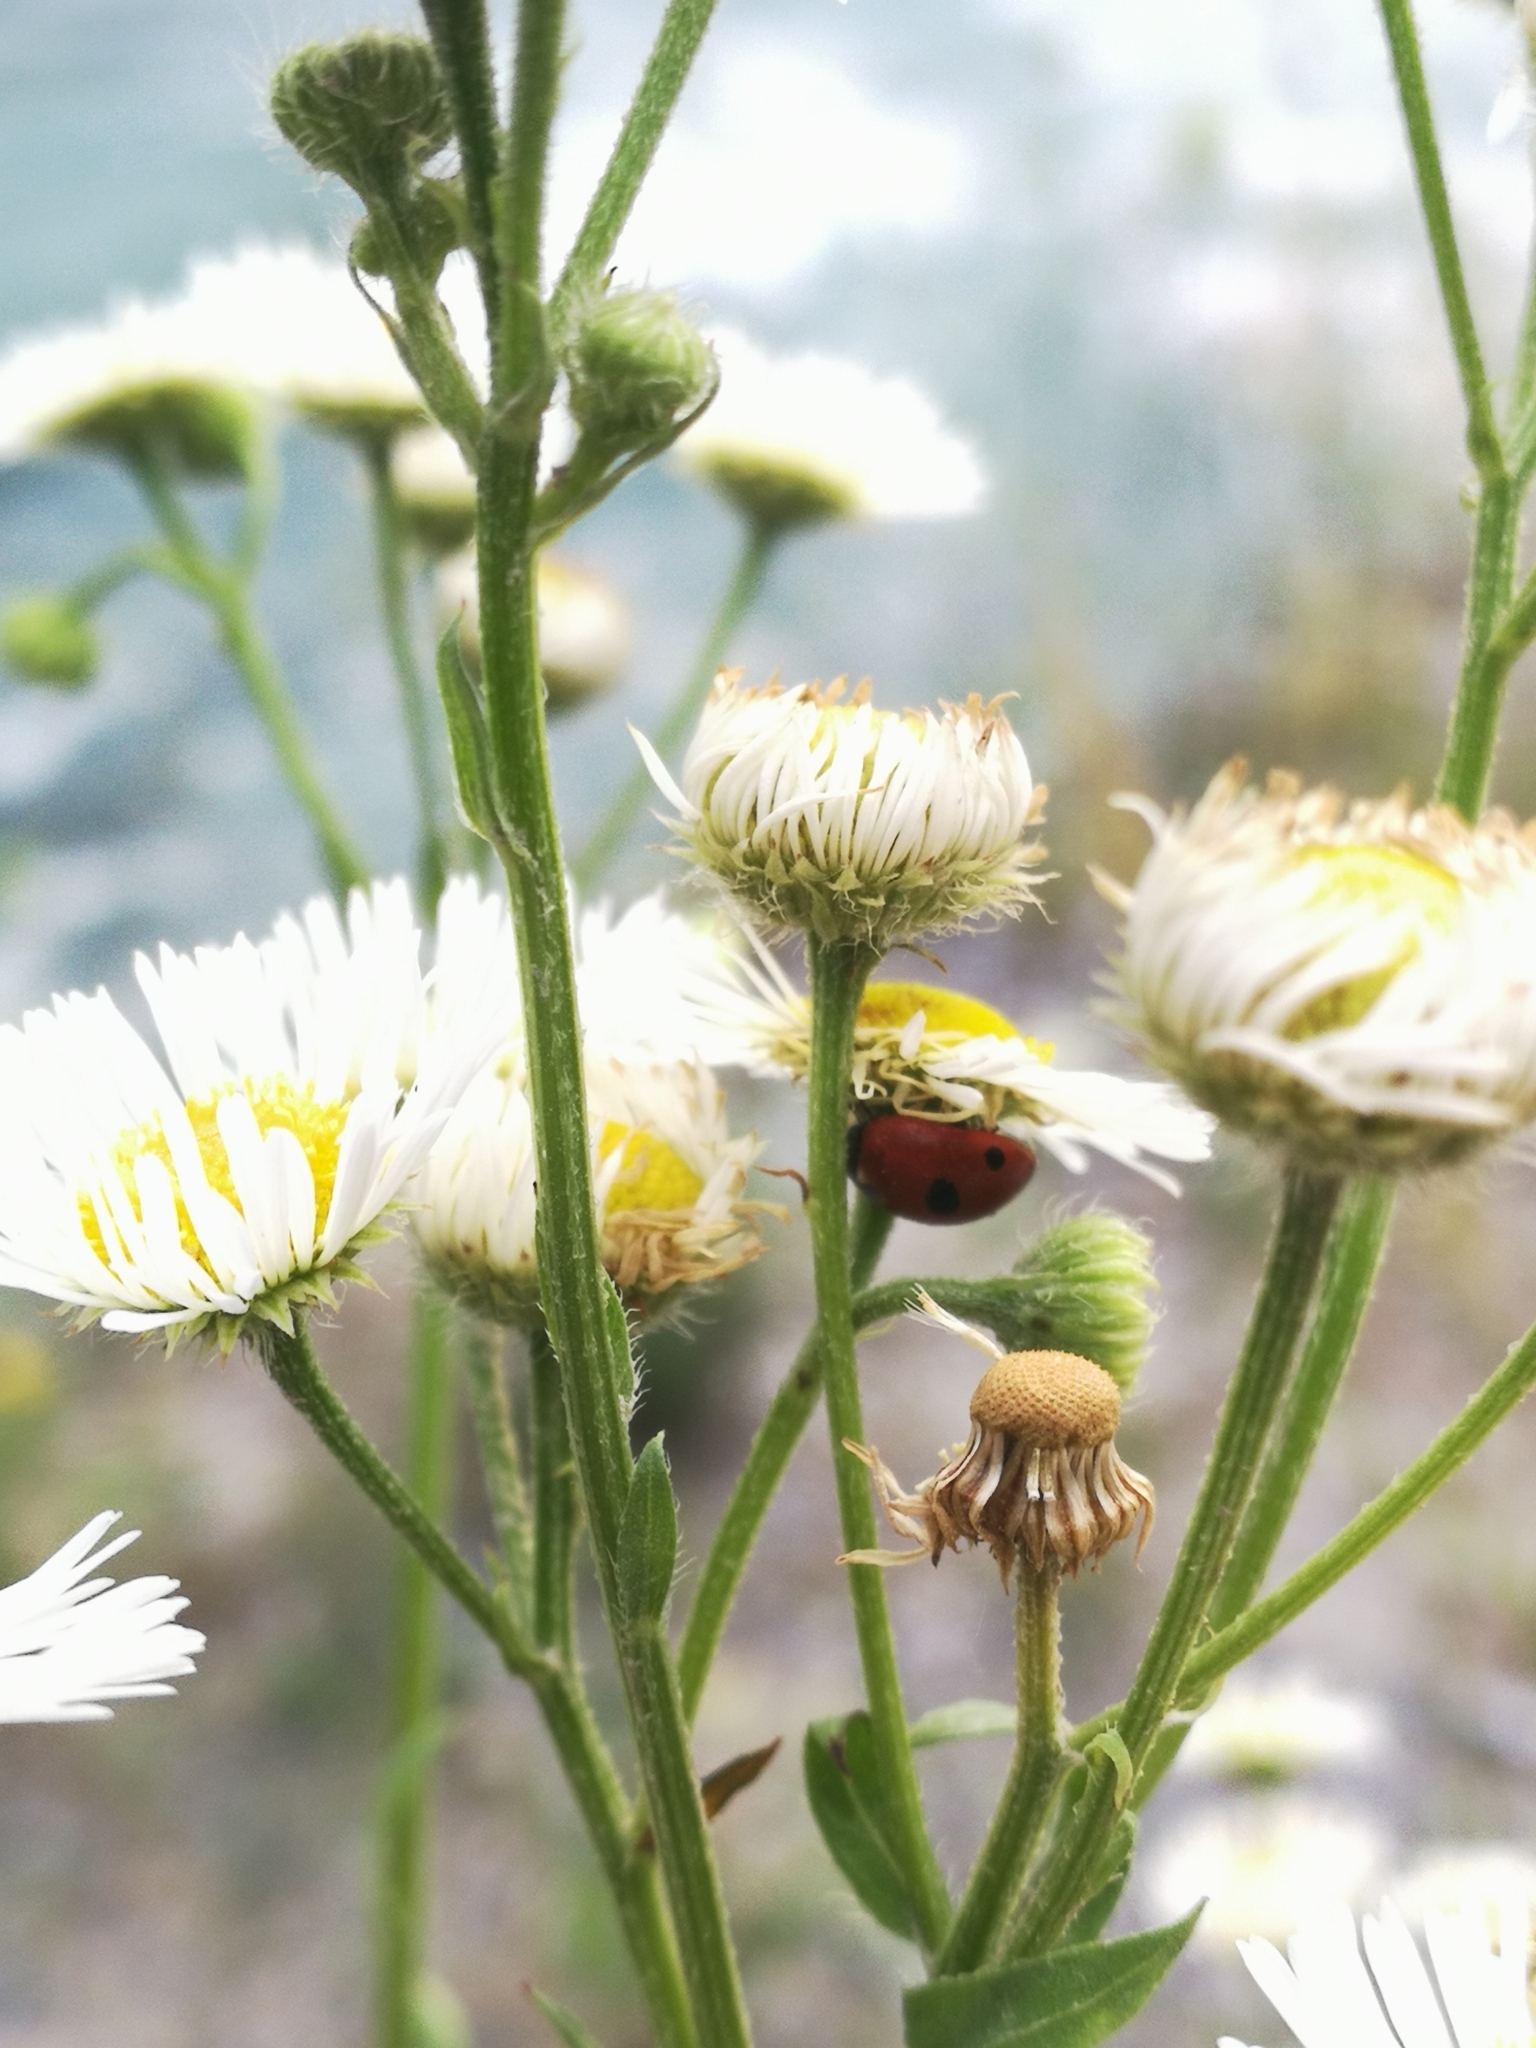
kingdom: Animalia
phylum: Arthropoda
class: Insecta
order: Coleoptera
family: Coccinellidae
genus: Coccinella
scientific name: Coccinella quinquepunctata
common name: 5-spot ladybird
